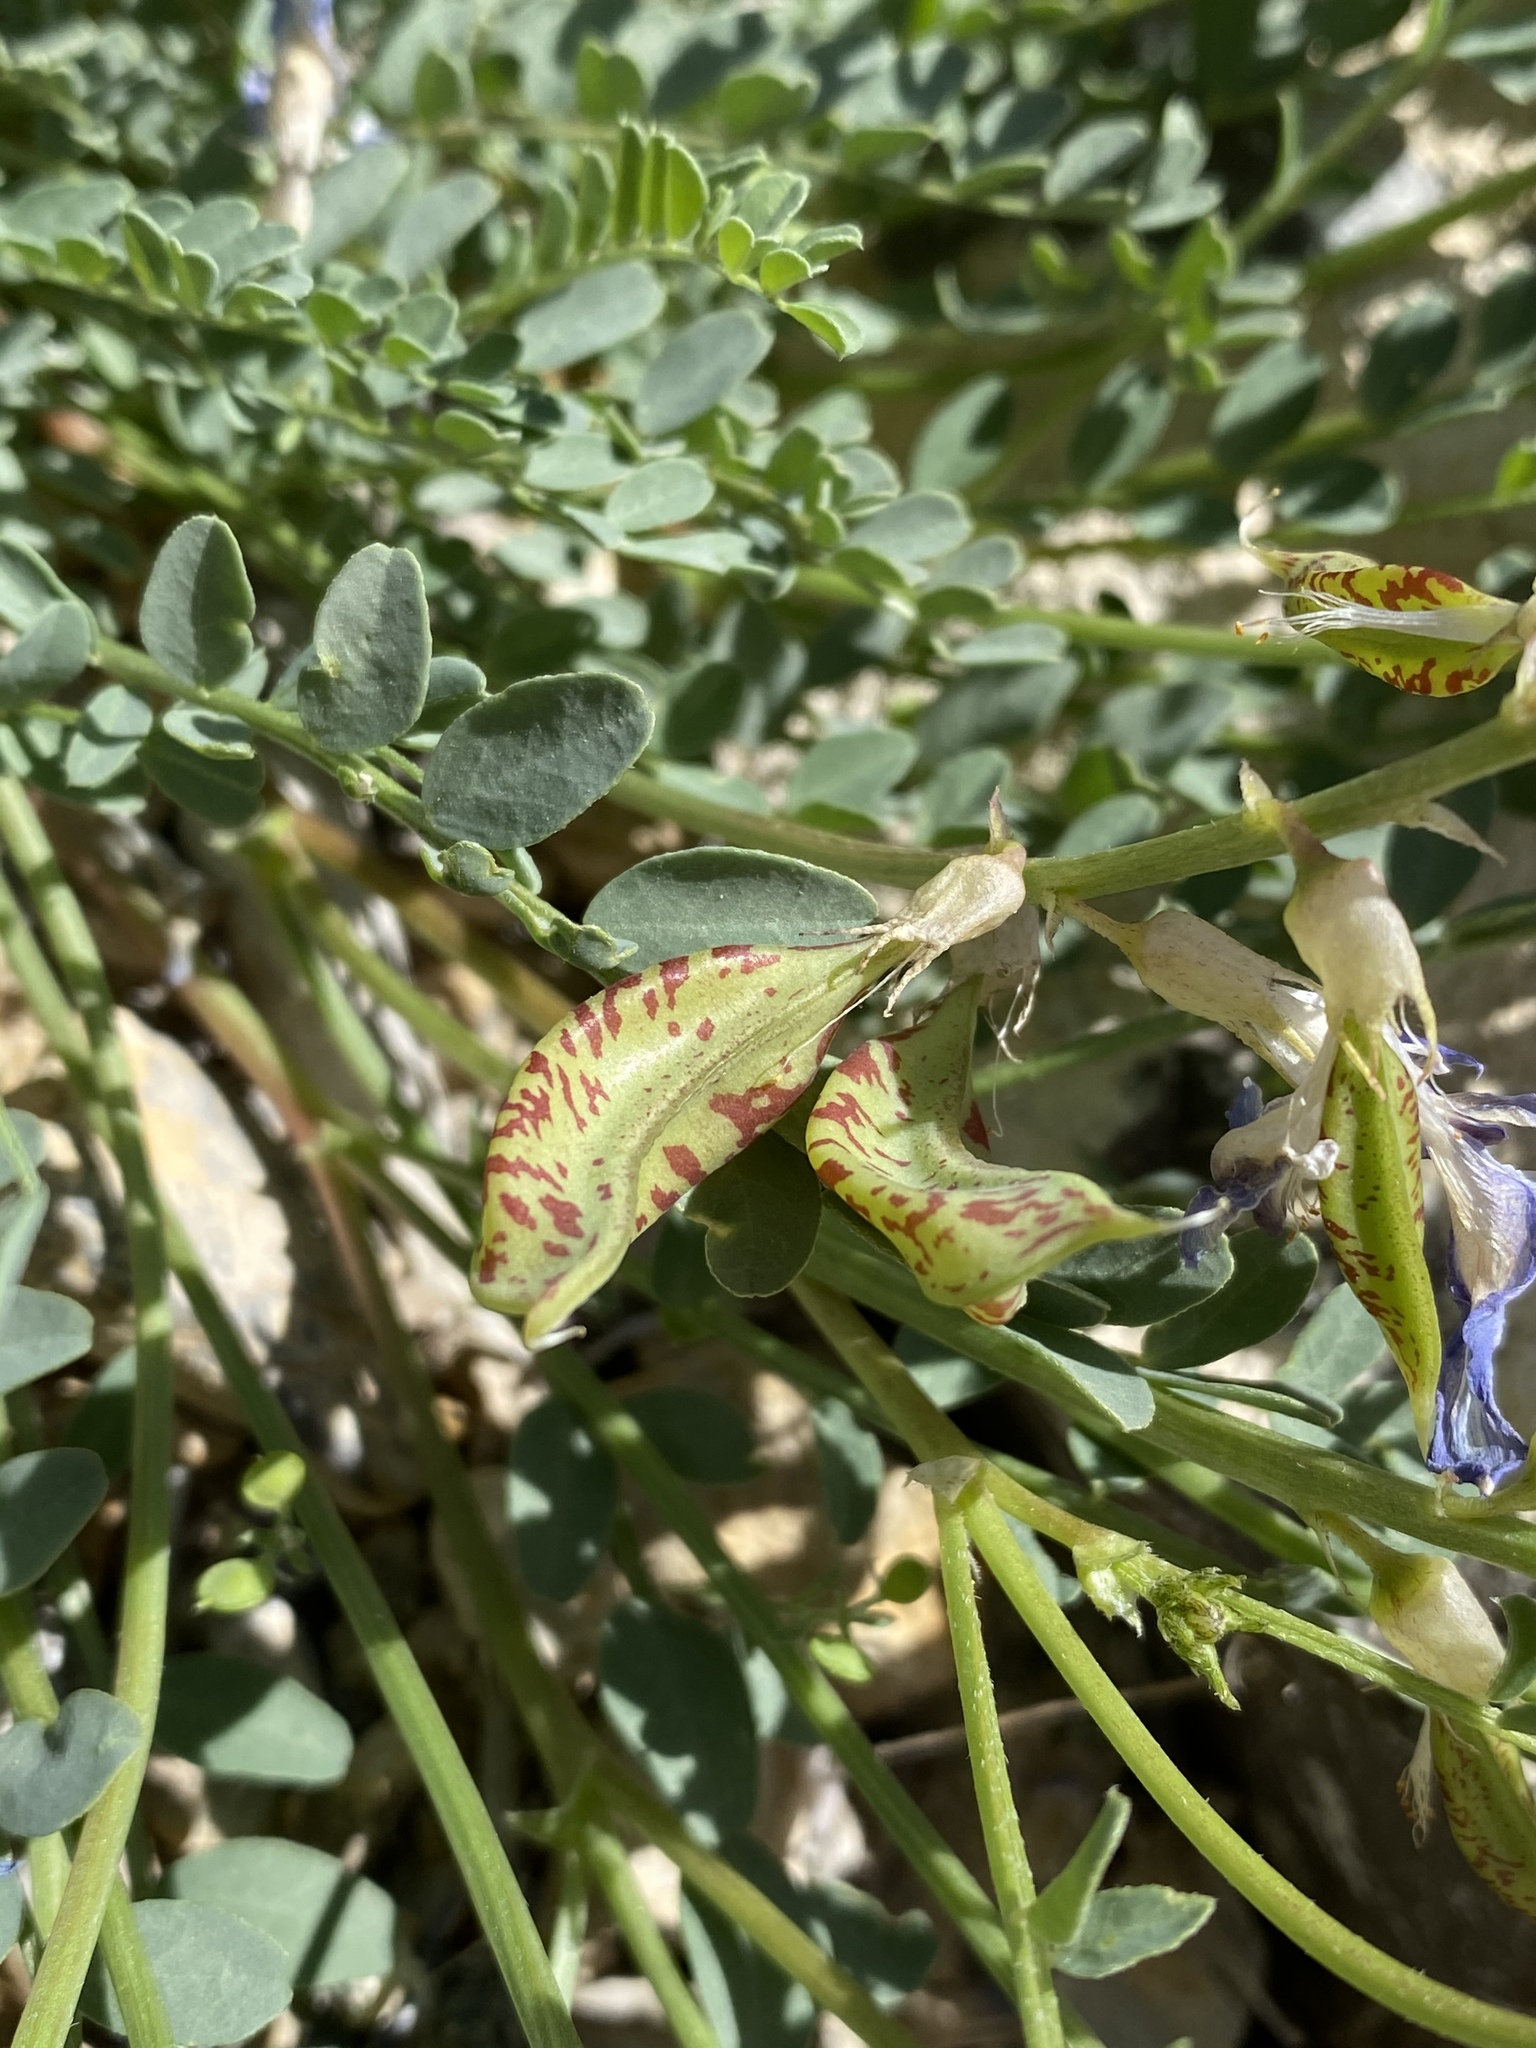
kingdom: Plantae
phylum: Tracheophyta
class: Magnoliopsida
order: Fabales
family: Fabaceae
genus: Astragalus
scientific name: Astragalus beckwithii
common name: Beckwith's milk-vetch
